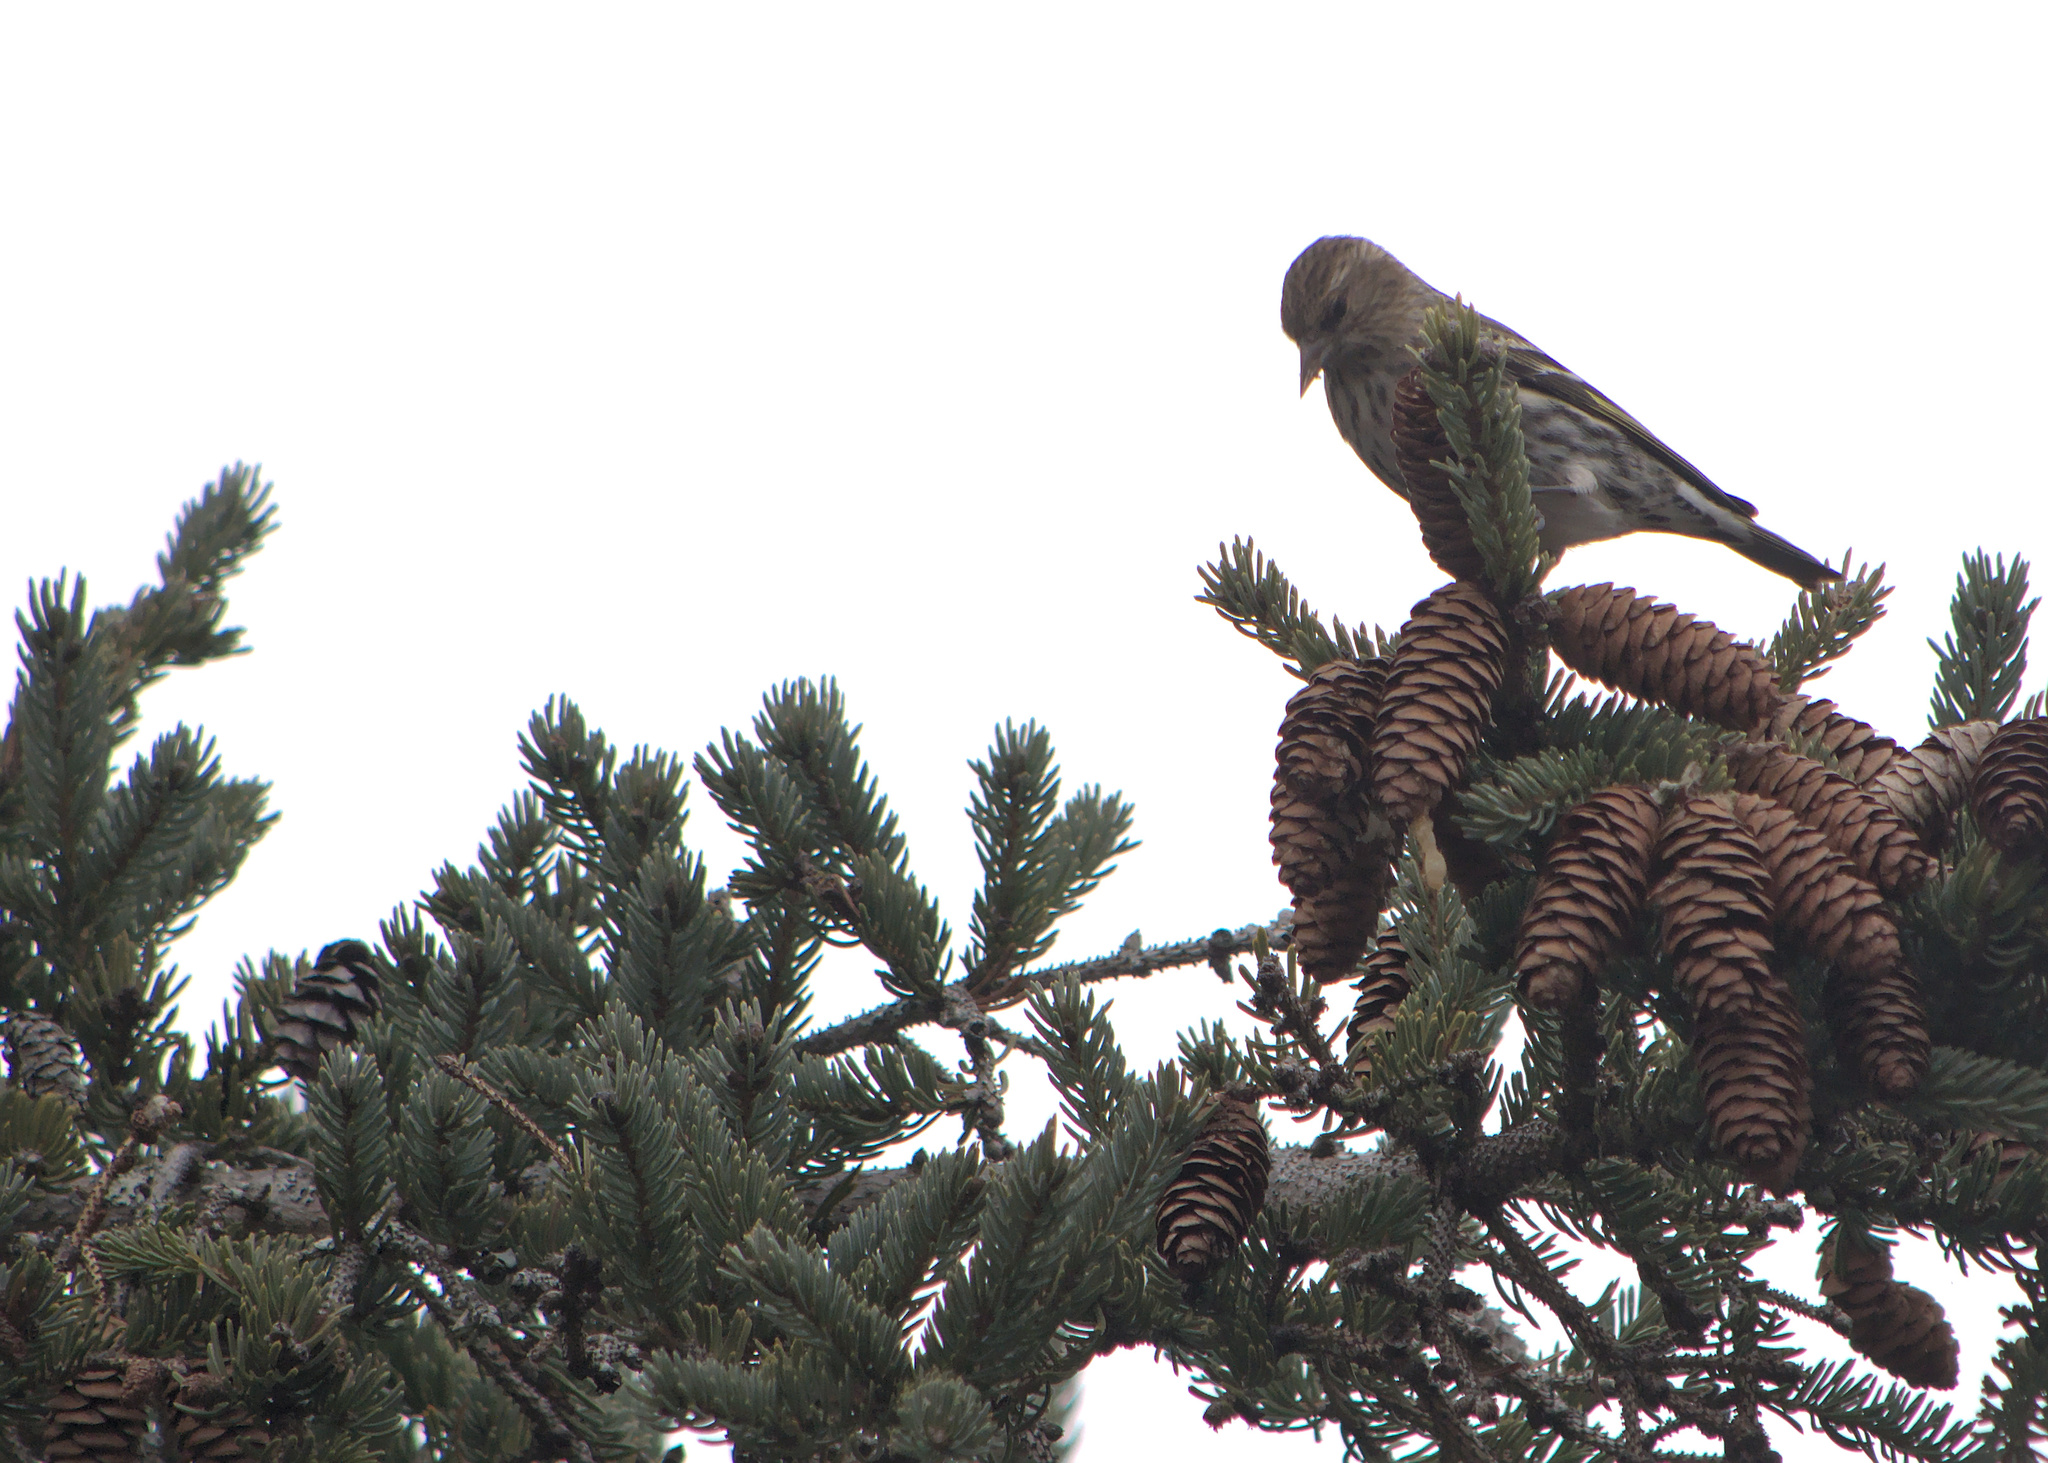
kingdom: Animalia
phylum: Chordata
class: Aves
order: Passeriformes
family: Fringillidae
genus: Spinus
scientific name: Spinus pinus
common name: Pine siskin
